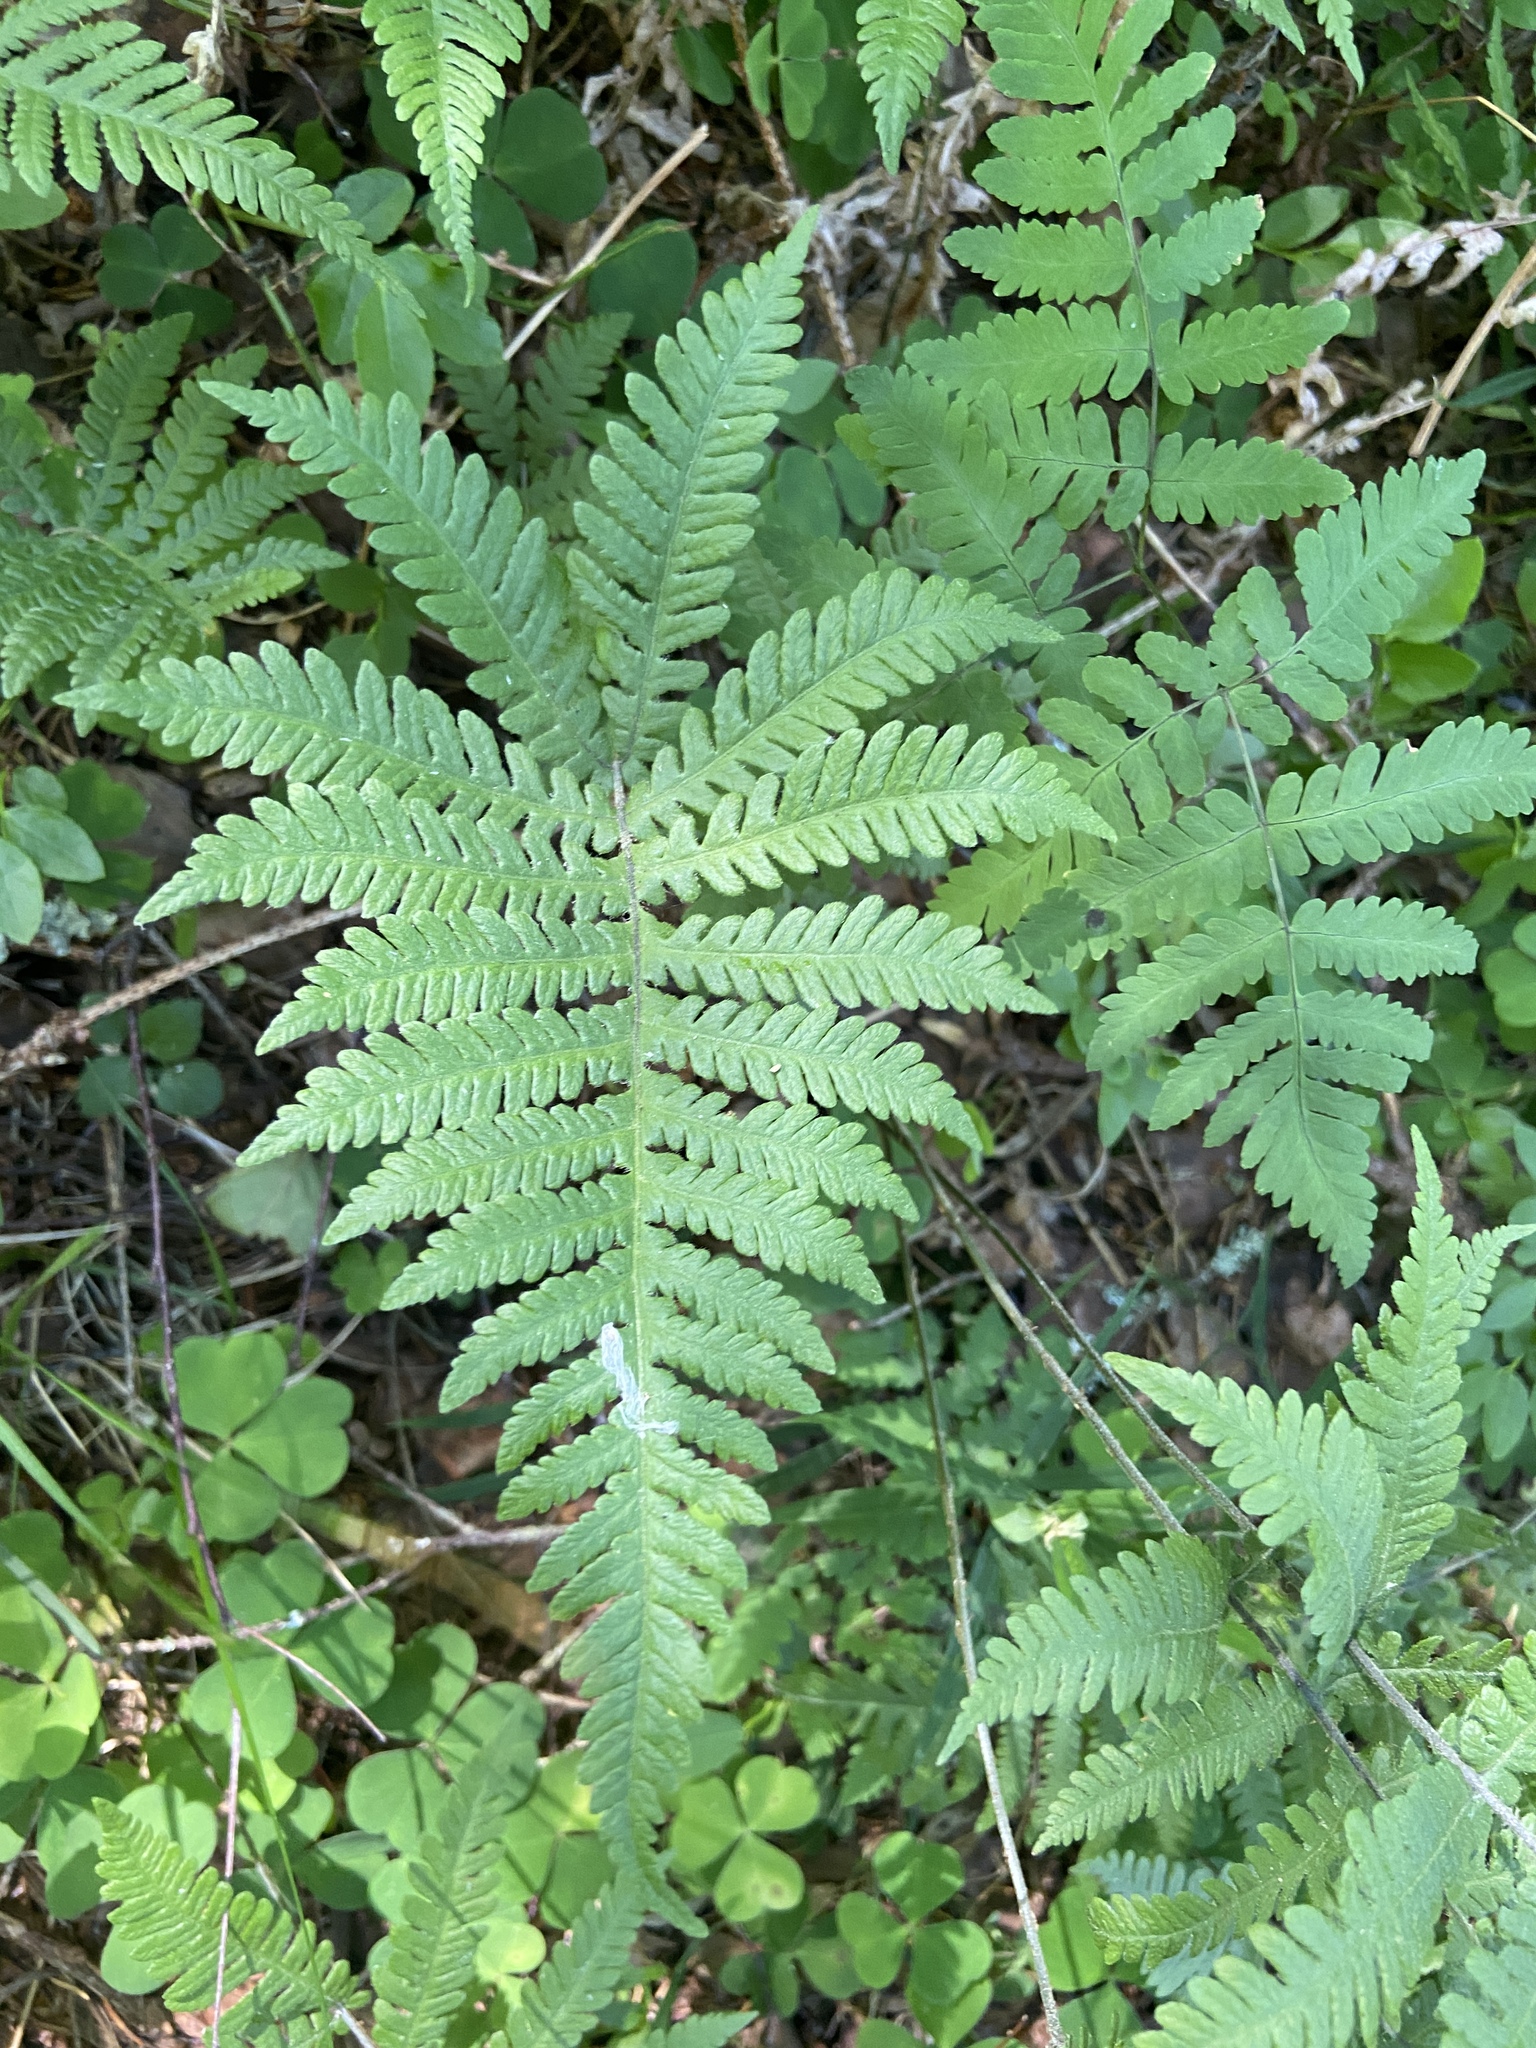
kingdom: Plantae
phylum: Tracheophyta
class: Polypodiopsida
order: Polypodiales
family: Thelypteridaceae
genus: Phegopteris
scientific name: Phegopteris connectilis
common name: Beech fern
